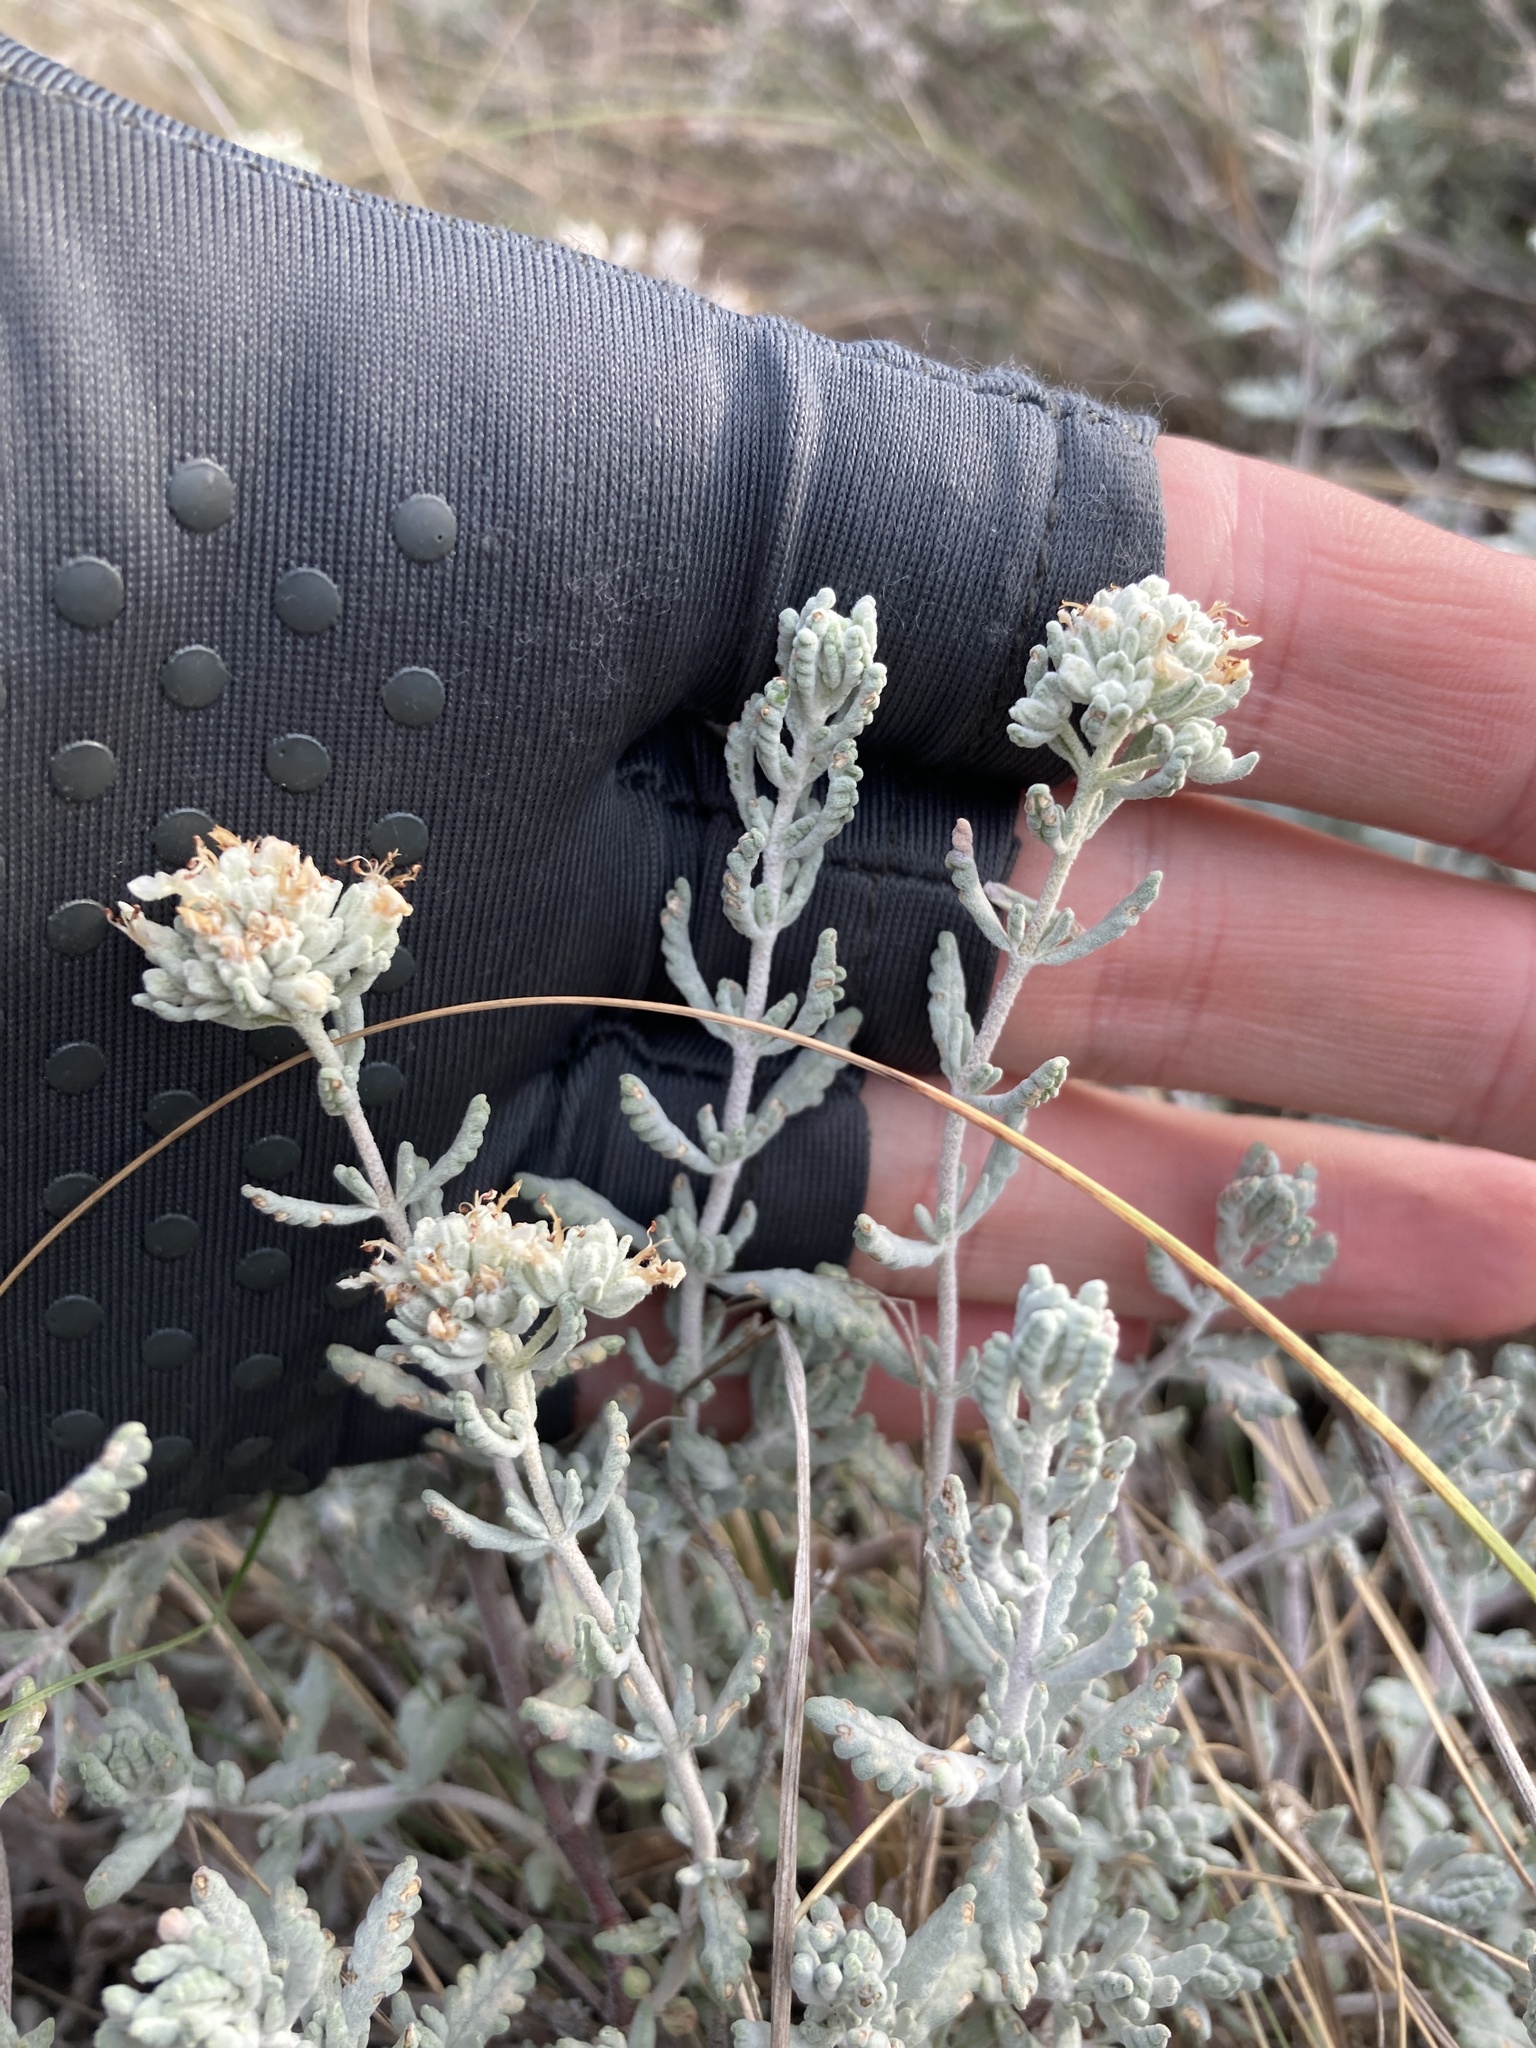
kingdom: Plantae
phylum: Tracheophyta
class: Magnoliopsida
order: Lamiales
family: Lamiaceae
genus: Teucrium
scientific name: Teucrium polium
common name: Poley
